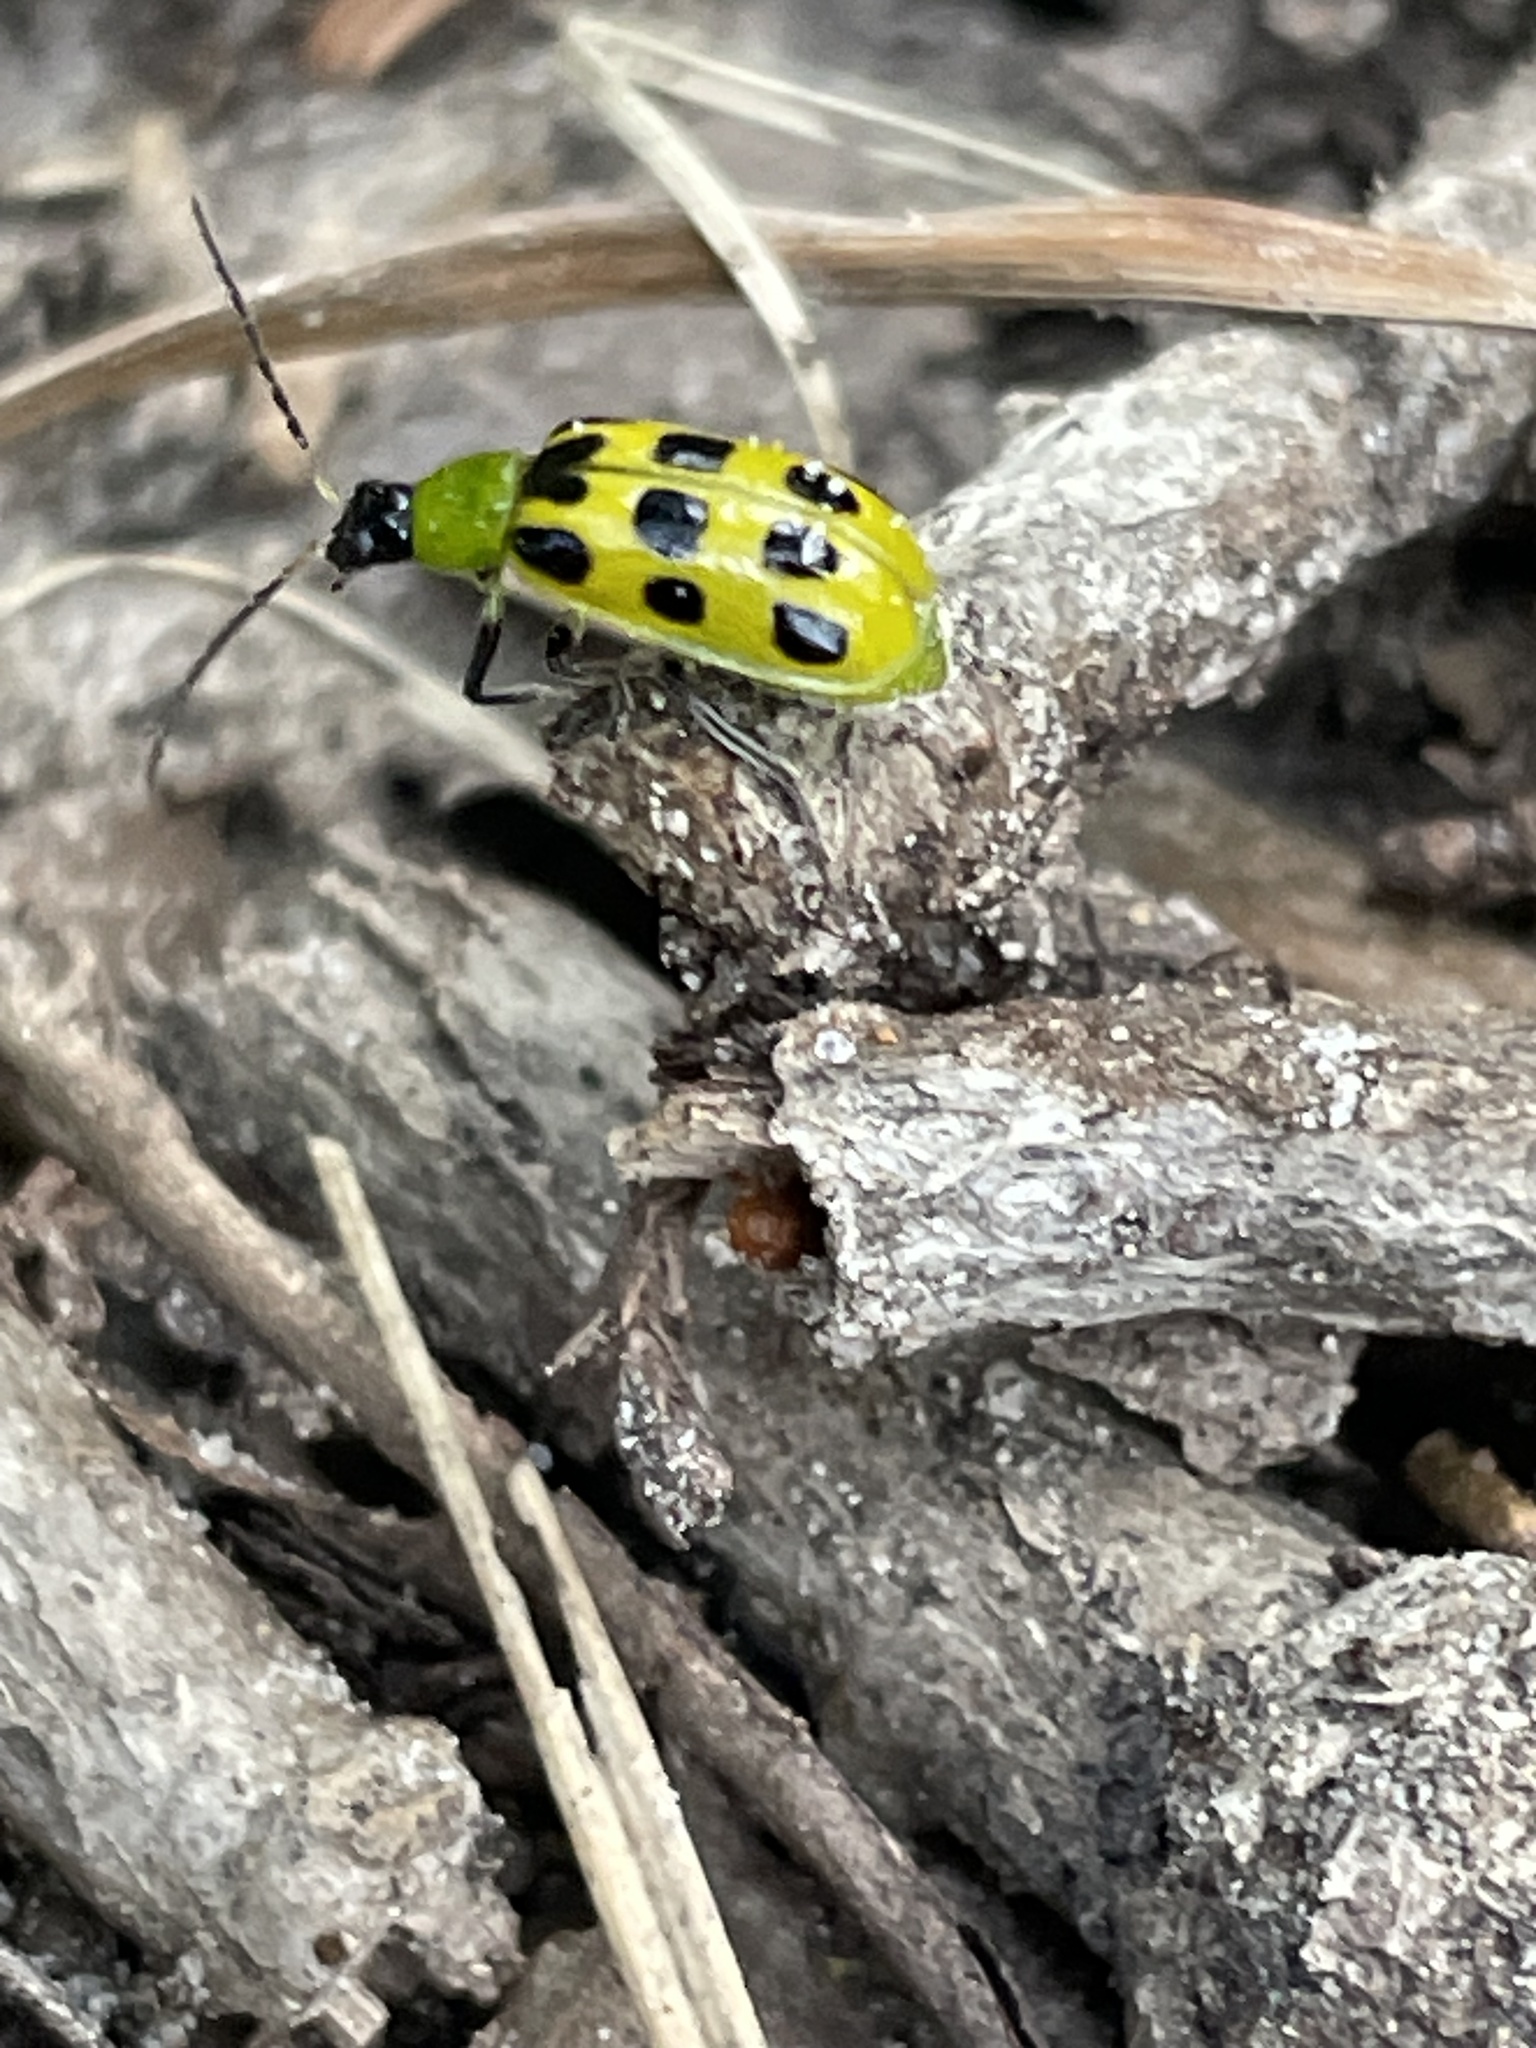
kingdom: Animalia
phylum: Arthropoda
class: Insecta
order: Coleoptera
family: Chrysomelidae
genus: Diabrotica
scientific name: Diabrotica undecimpunctata
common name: Spotted cucumber beetle
